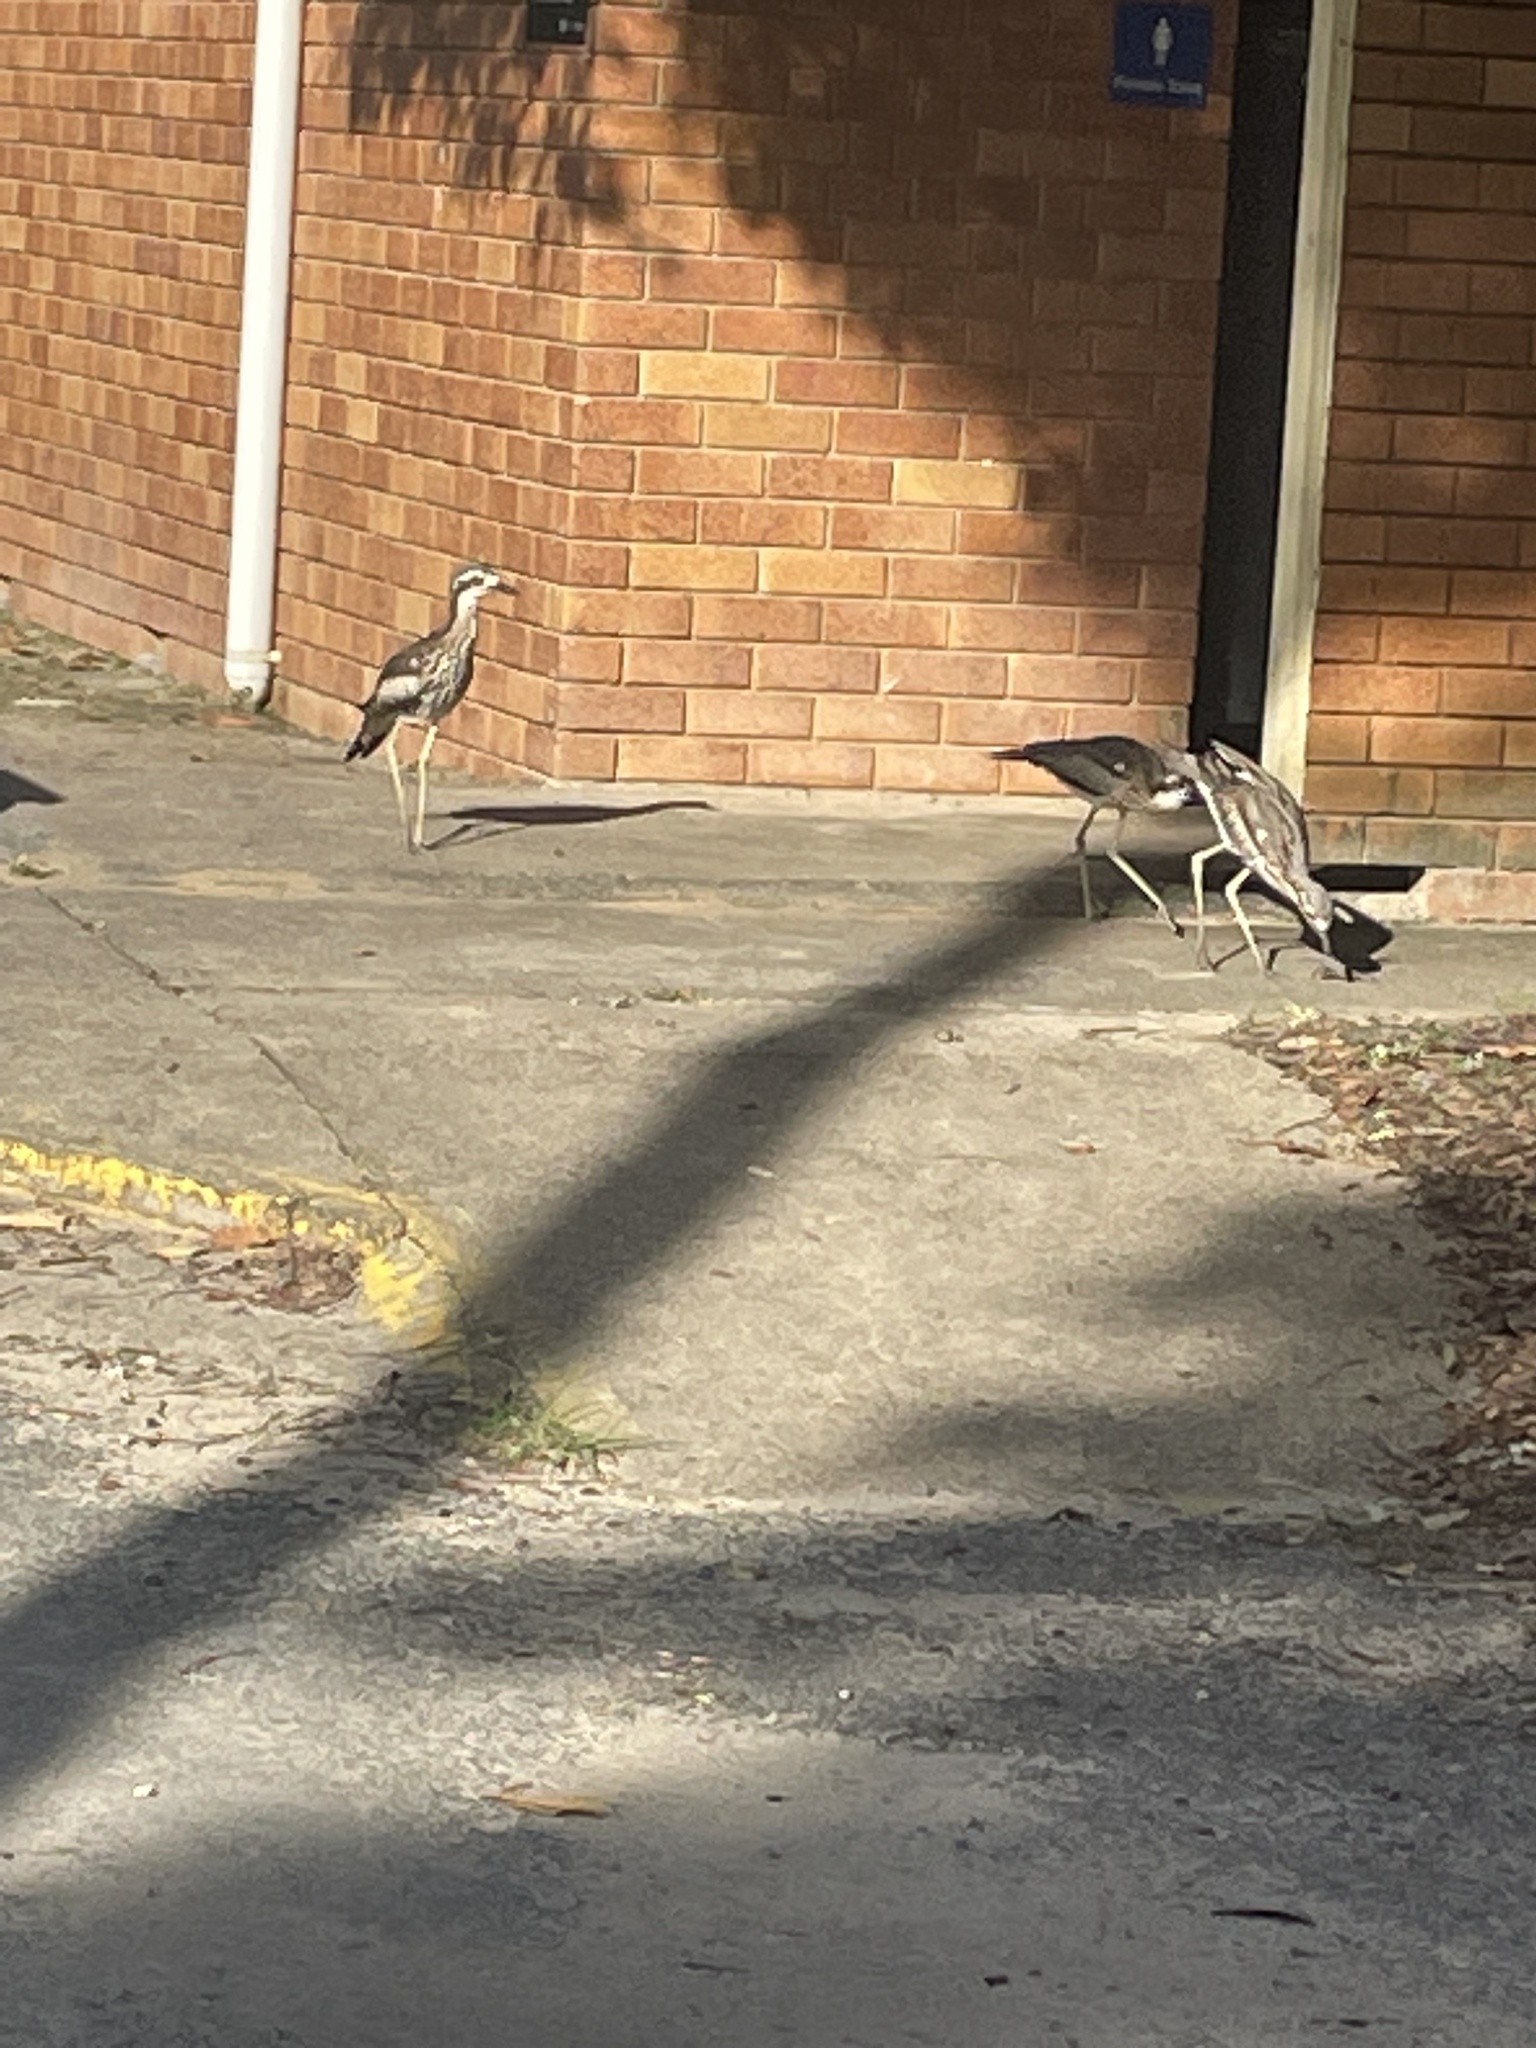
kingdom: Animalia
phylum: Chordata
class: Aves
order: Charadriiformes
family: Burhinidae
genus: Burhinus
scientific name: Burhinus grallarius
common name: Bush stone-curlew
